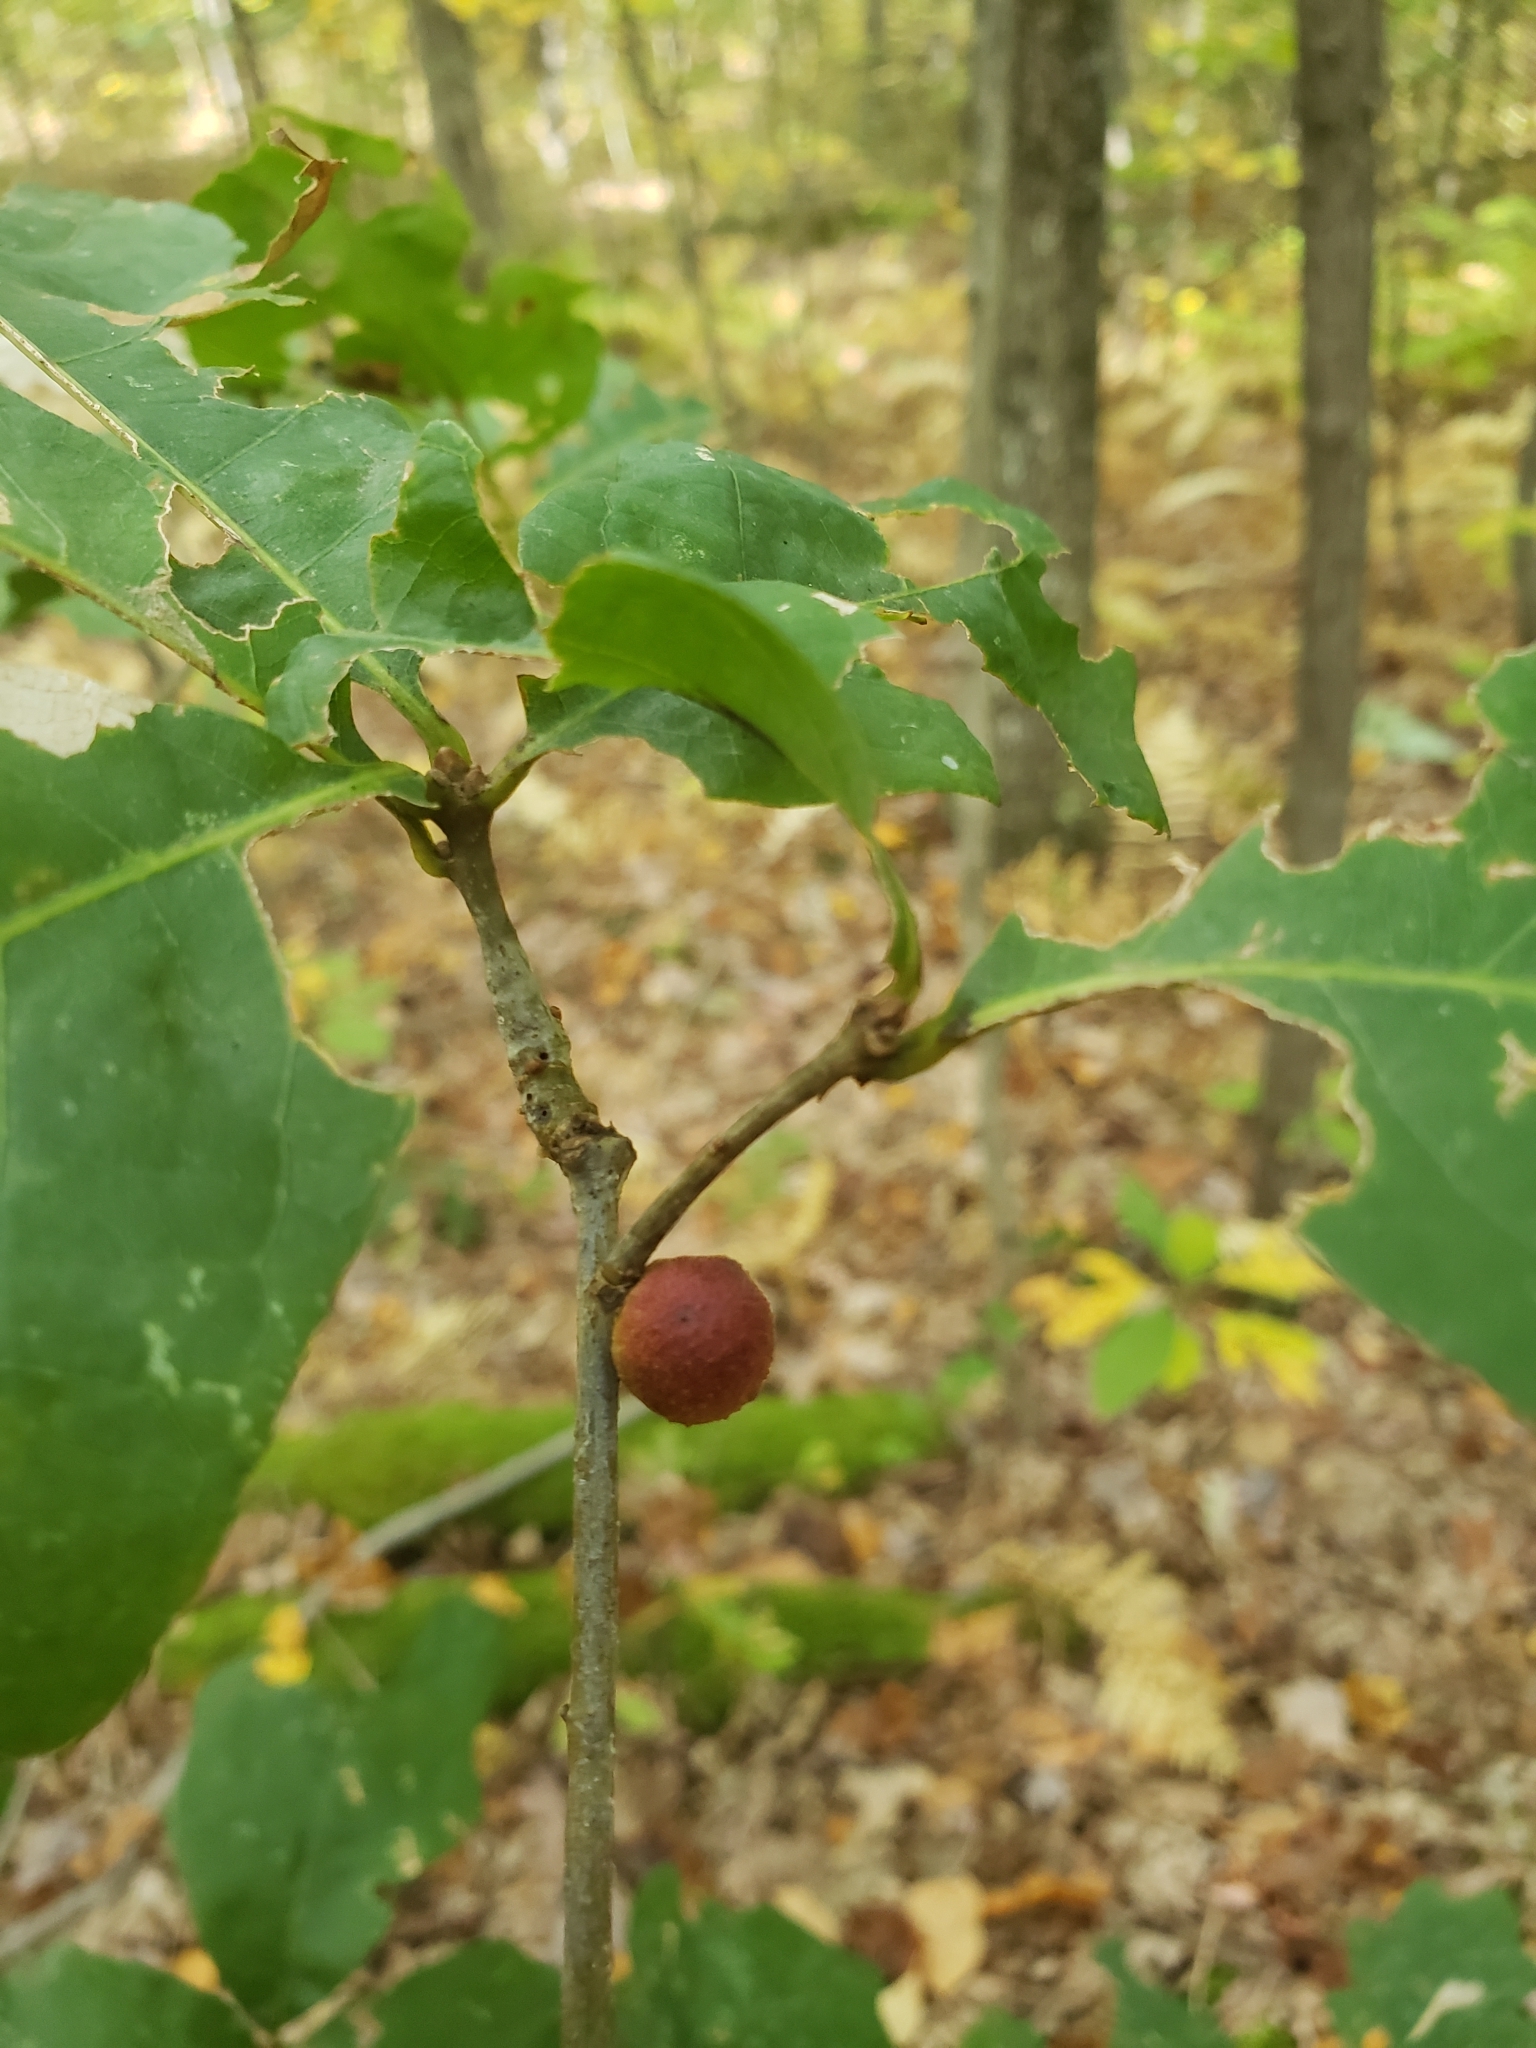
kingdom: Animalia
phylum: Arthropoda
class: Insecta
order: Hymenoptera
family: Cynipidae
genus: Disholcaspis
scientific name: Disholcaspis quercusglobulus
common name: Round bullet gall wasp
